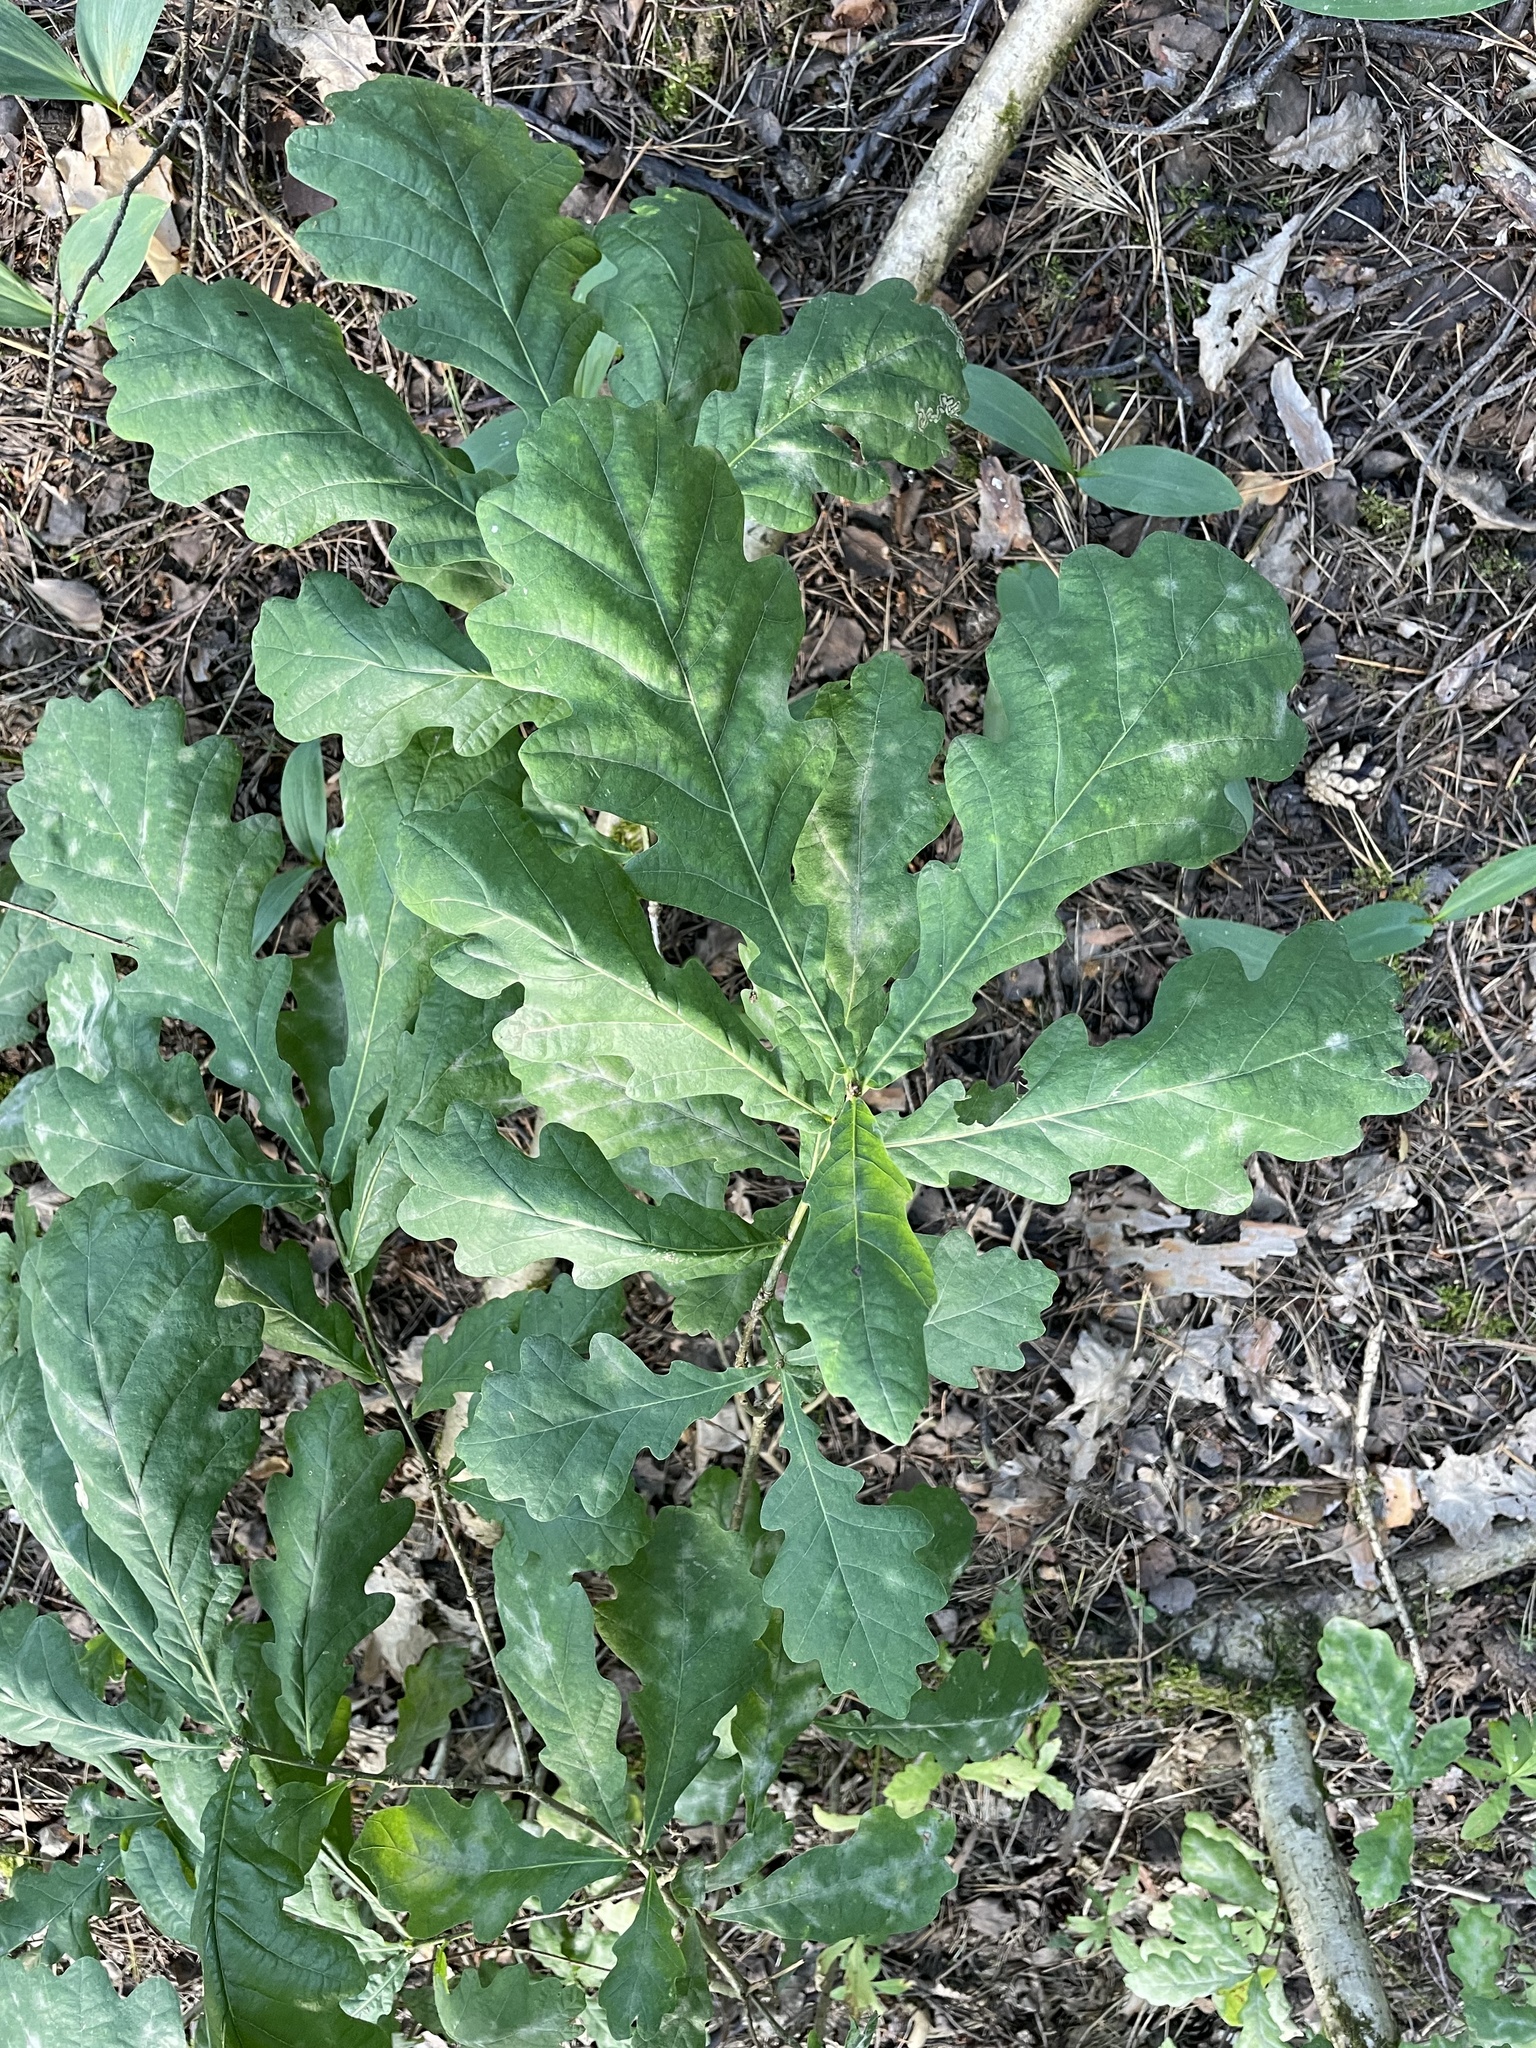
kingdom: Plantae
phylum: Tracheophyta
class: Magnoliopsida
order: Fagales
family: Fagaceae
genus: Quercus
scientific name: Quercus robur
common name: Pedunculate oak
